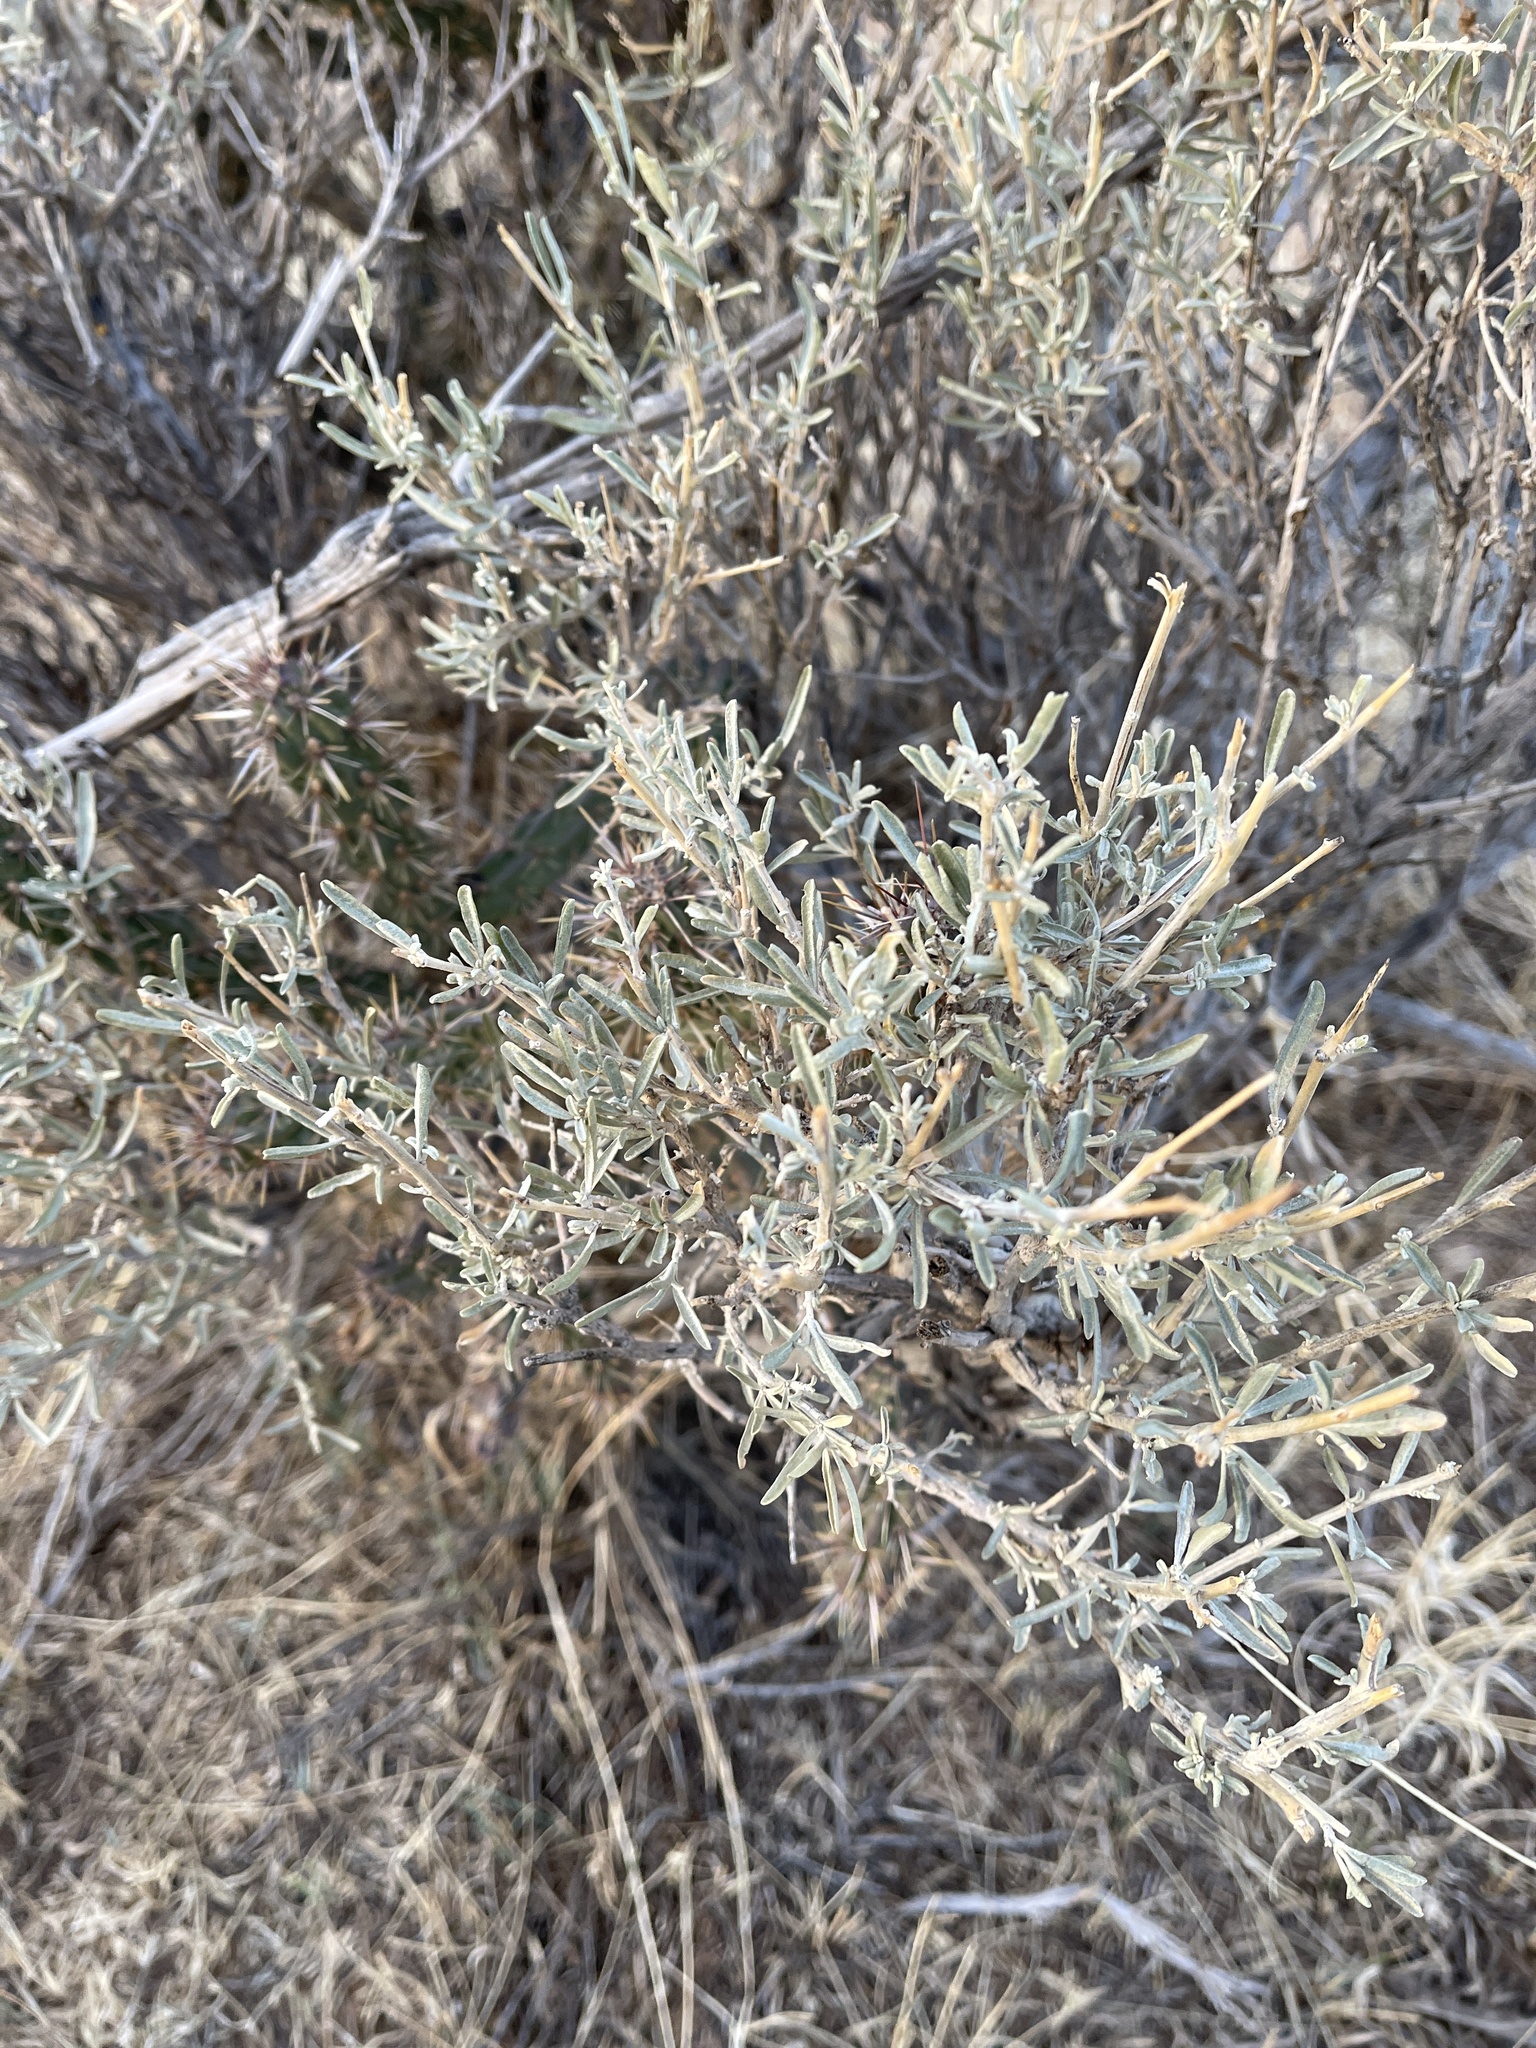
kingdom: Plantae
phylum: Tracheophyta
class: Magnoliopsida
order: Caryophyllales
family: Amaranthaceae
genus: Atriplex
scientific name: Atriplex canescens
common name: Four-wing saltbush
